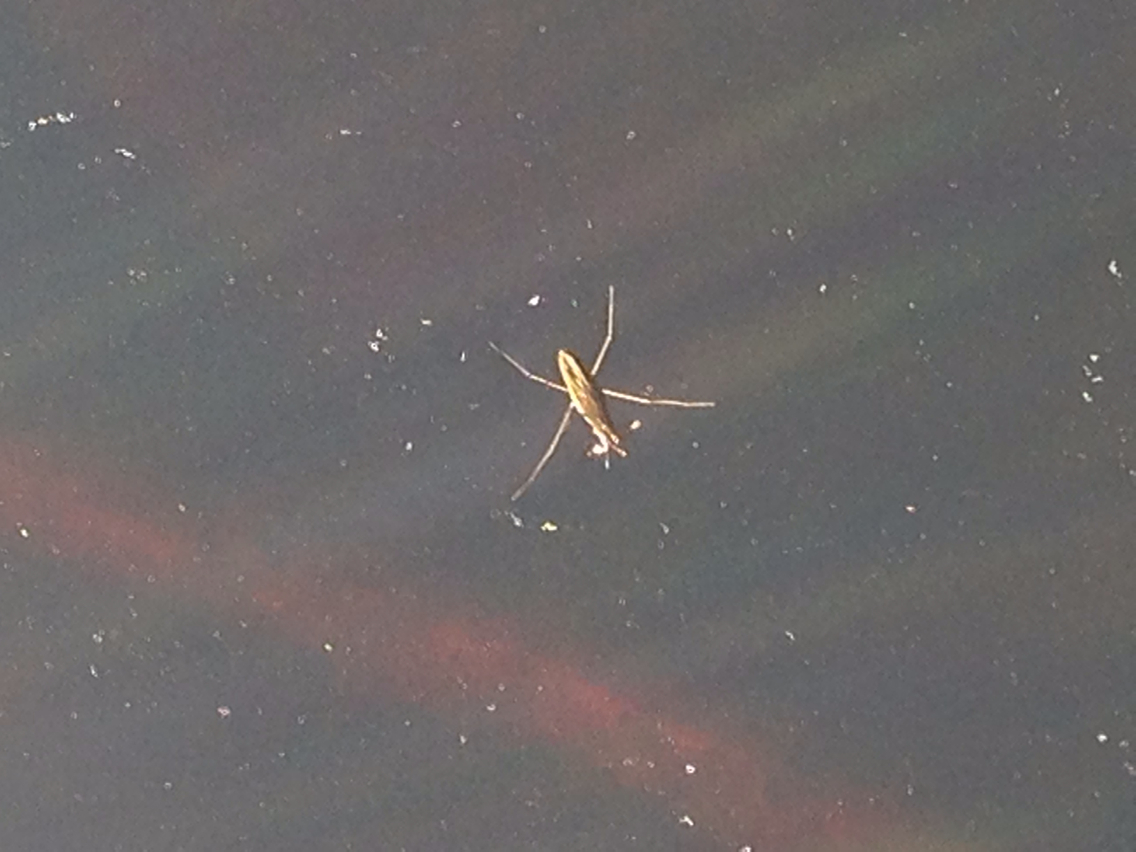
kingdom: Animalia
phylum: Arthropoda
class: Insecta
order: Hemiptera
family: Gerridae
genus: Gerris
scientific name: Gerris
